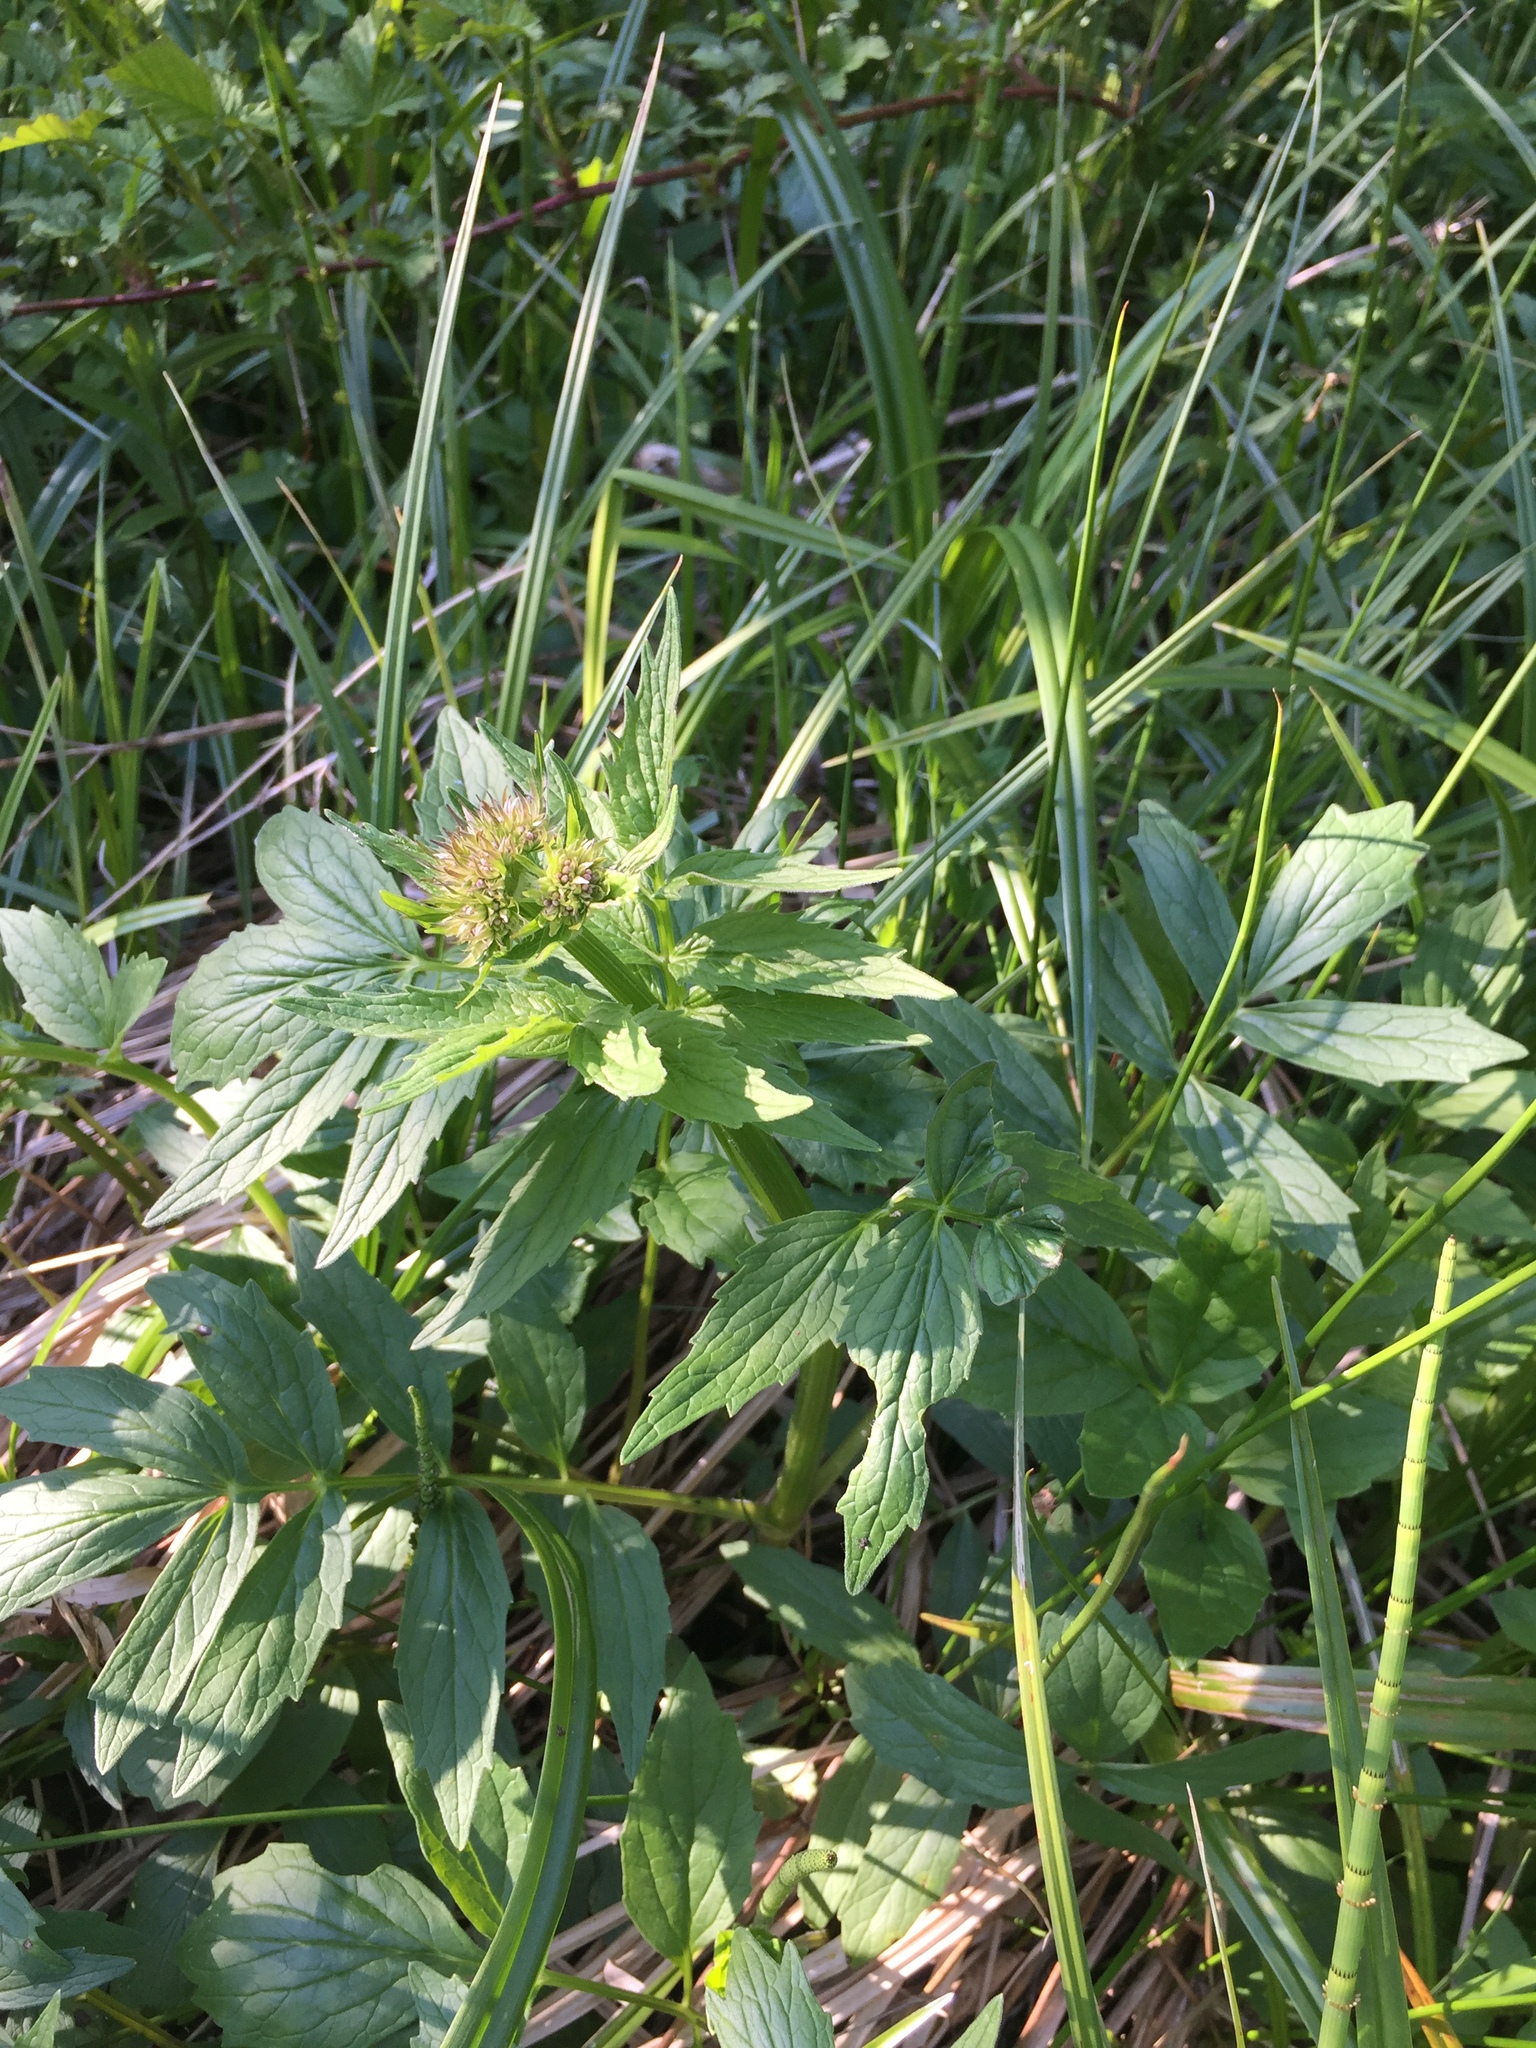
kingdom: Plantae
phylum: Tracheophyta
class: Magnoliopsida
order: Dipsacales
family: Caprifoliaceae
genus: Valeriana
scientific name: Valeriana officinalis
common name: Common valerian
